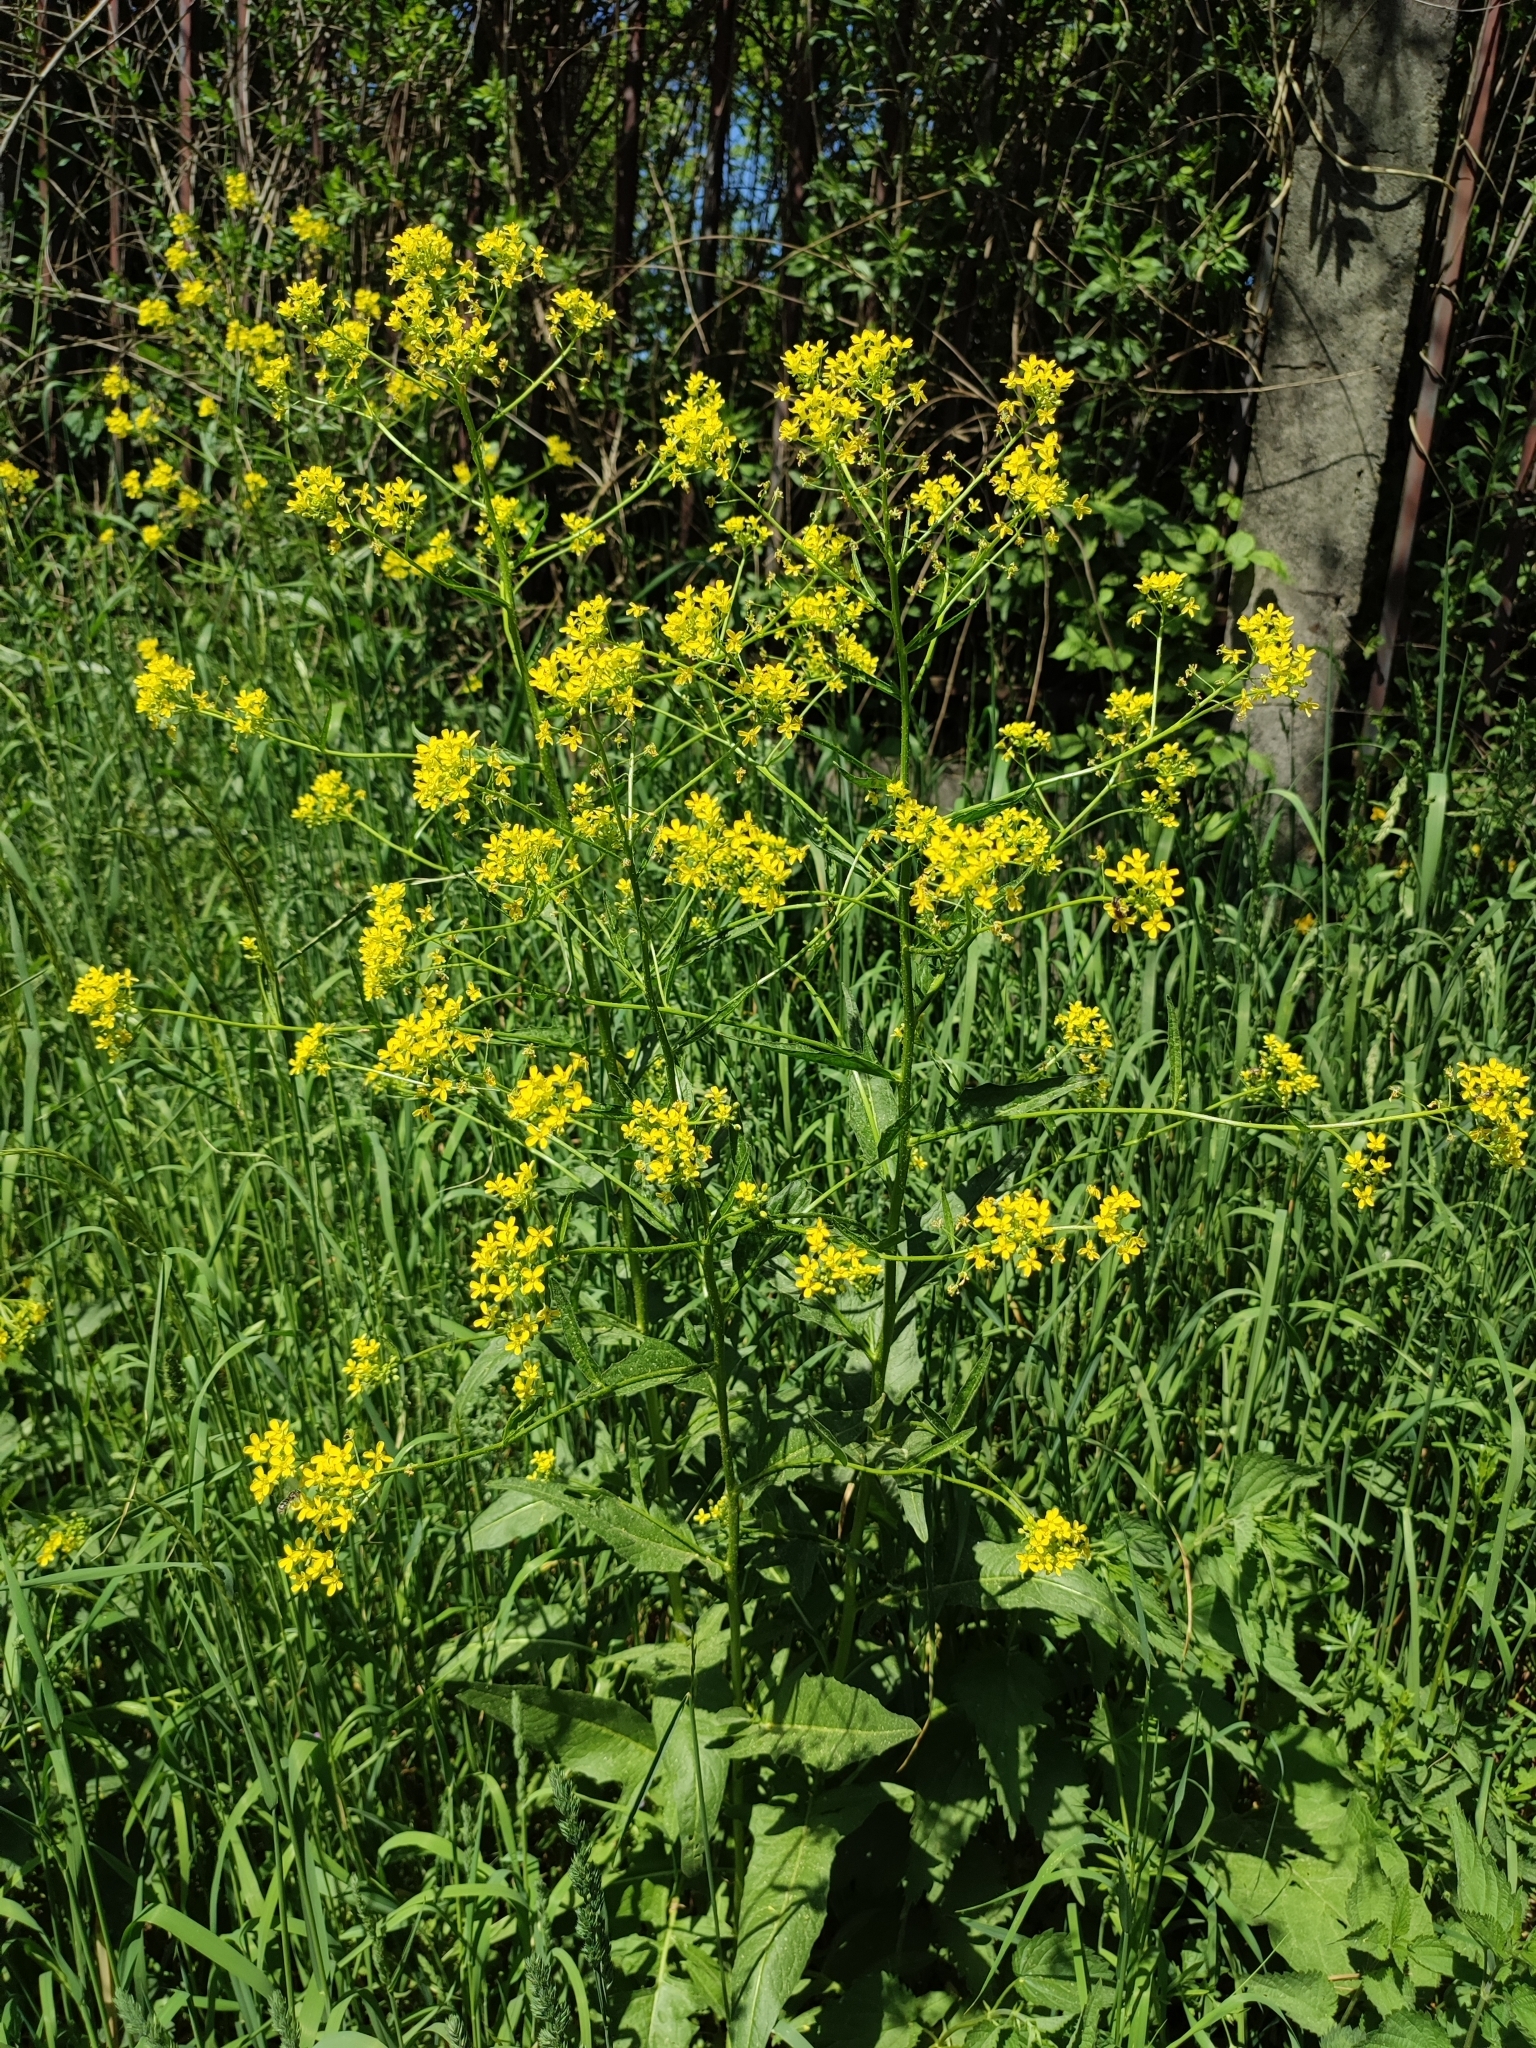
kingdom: Plantae
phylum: Tracheophyta
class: Magnoliopsida
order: Brassicales
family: Brassicaceae
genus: Bunias
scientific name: Bunias orientalis
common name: Warty-cabbage
